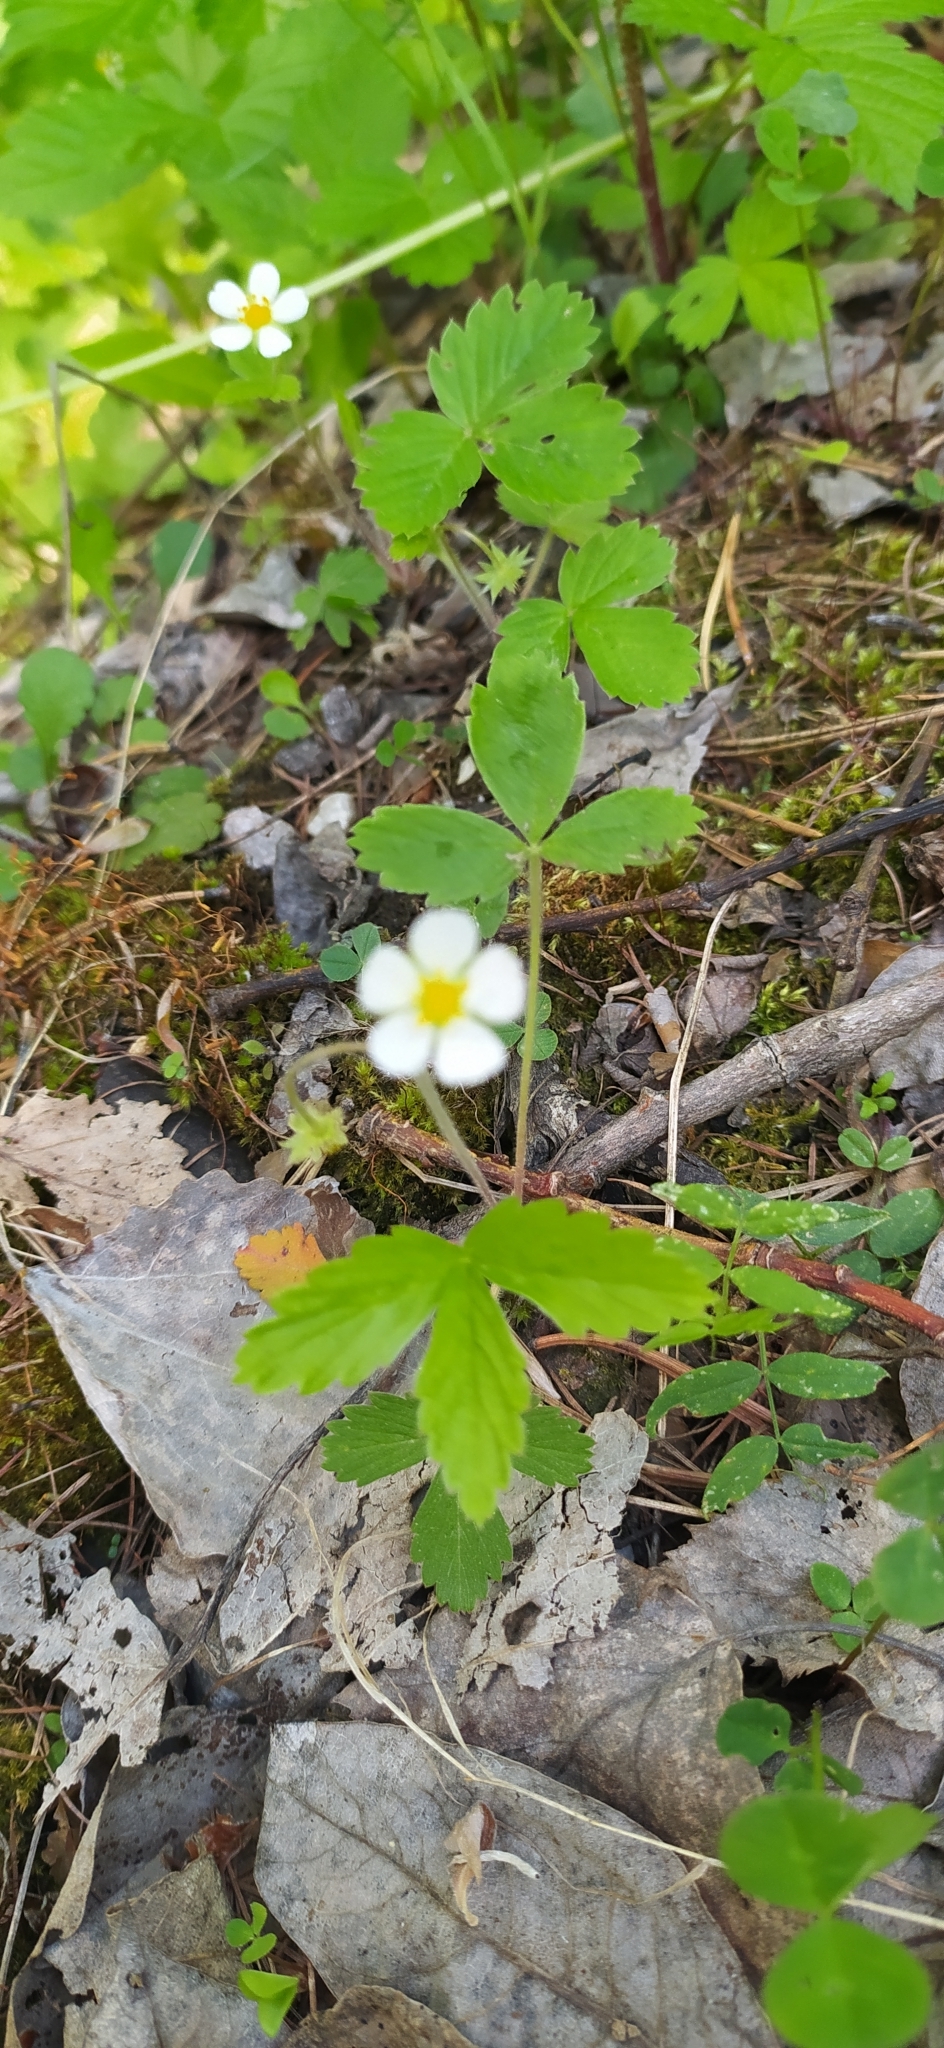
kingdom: Plantae
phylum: Tracheophyta
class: Magnoliopsida
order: Rosales
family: Rosaceae
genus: Fragaria
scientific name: Fragaria vesca
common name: Wild strawberry
